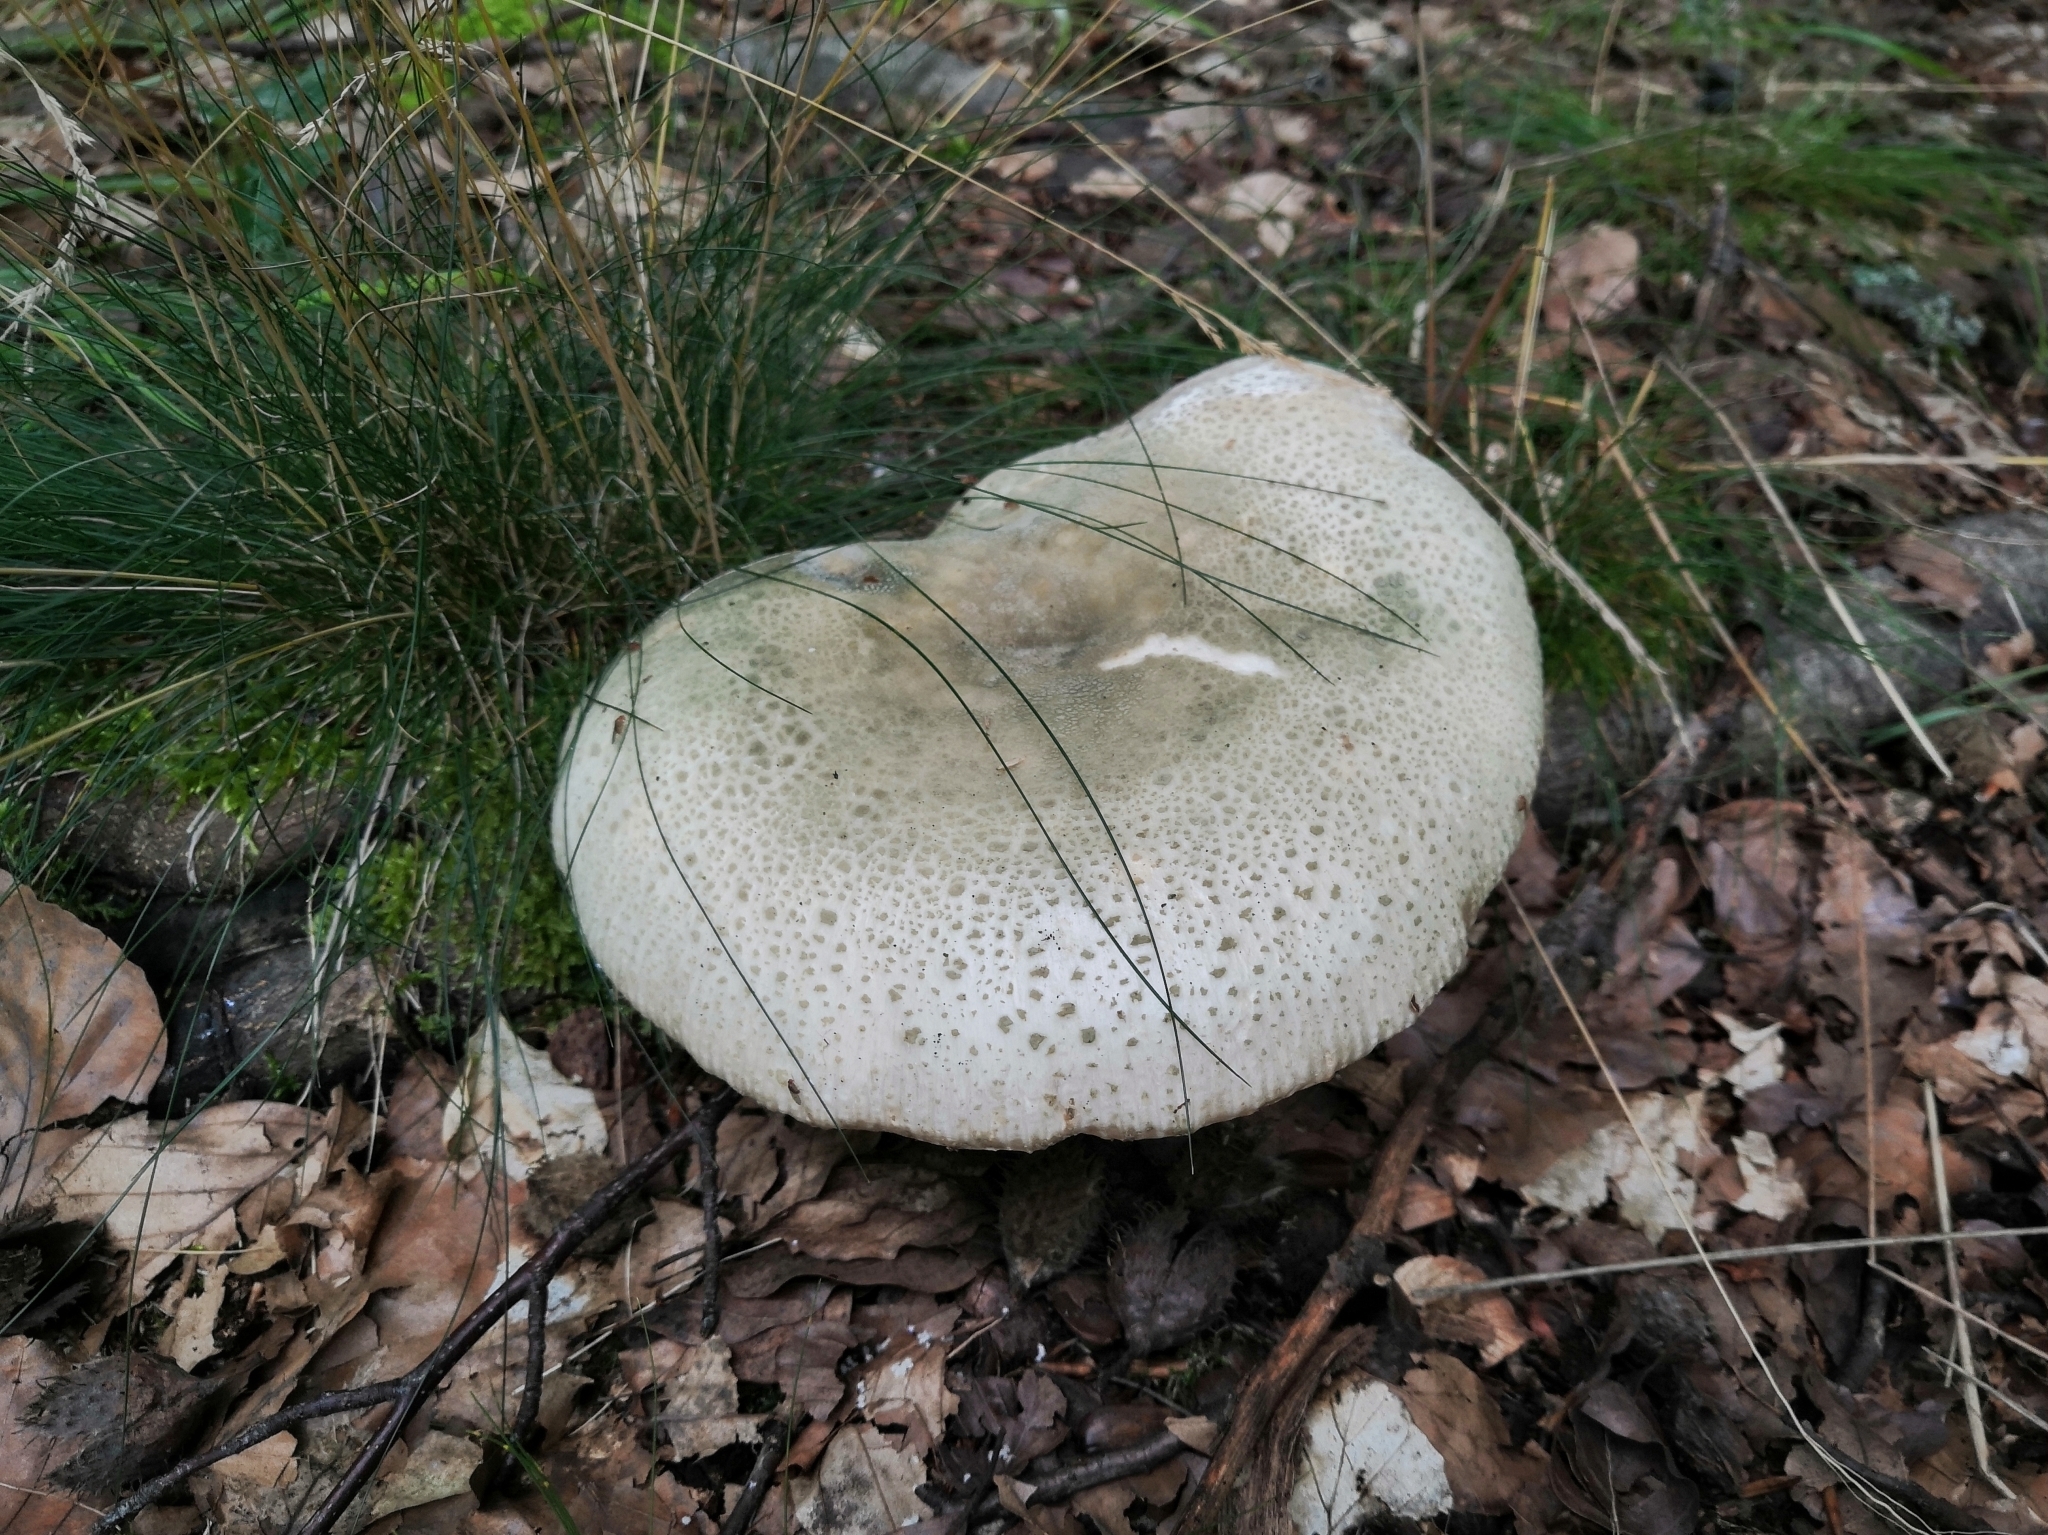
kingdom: Fungi
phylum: Basidiomycota
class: Agaricomycetes
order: Russulales
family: Russulaceae
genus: Russula
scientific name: Russula virescens
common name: Greencracked brittlegill
